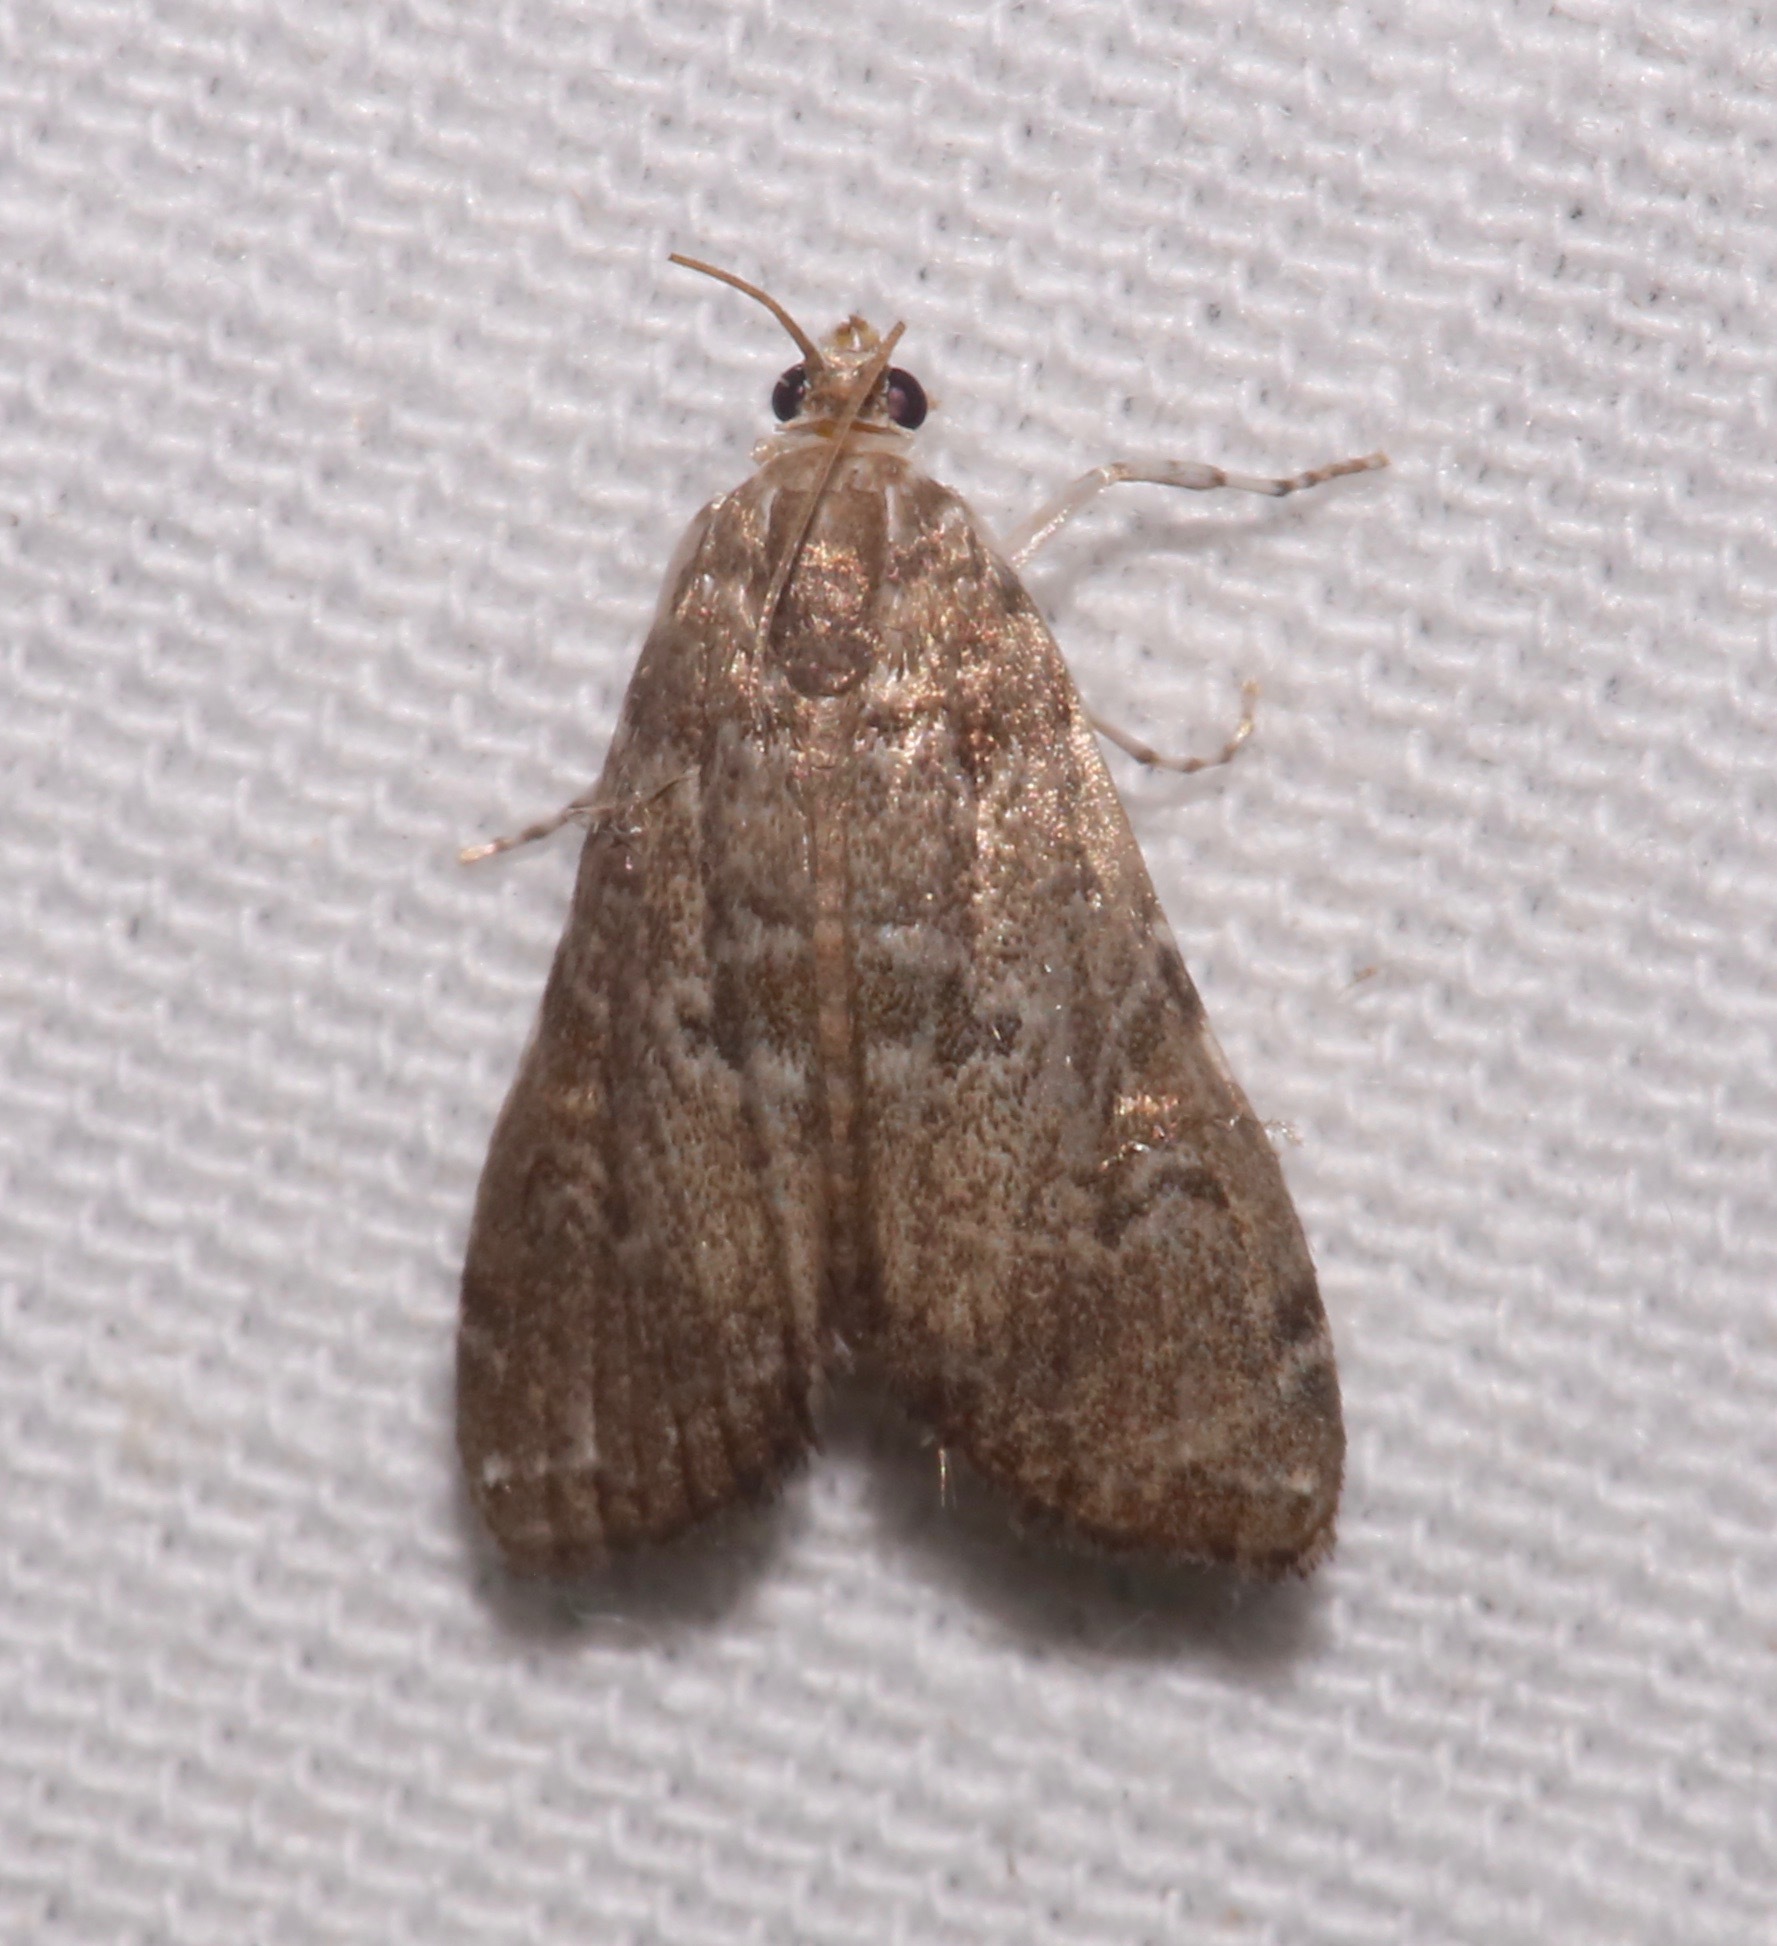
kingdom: Animalia
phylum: Arthropoda
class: Insecta
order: Lepidoptera
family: Crambidae
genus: Elophila
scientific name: Elophila gyralis
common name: Waterlily borer moth
